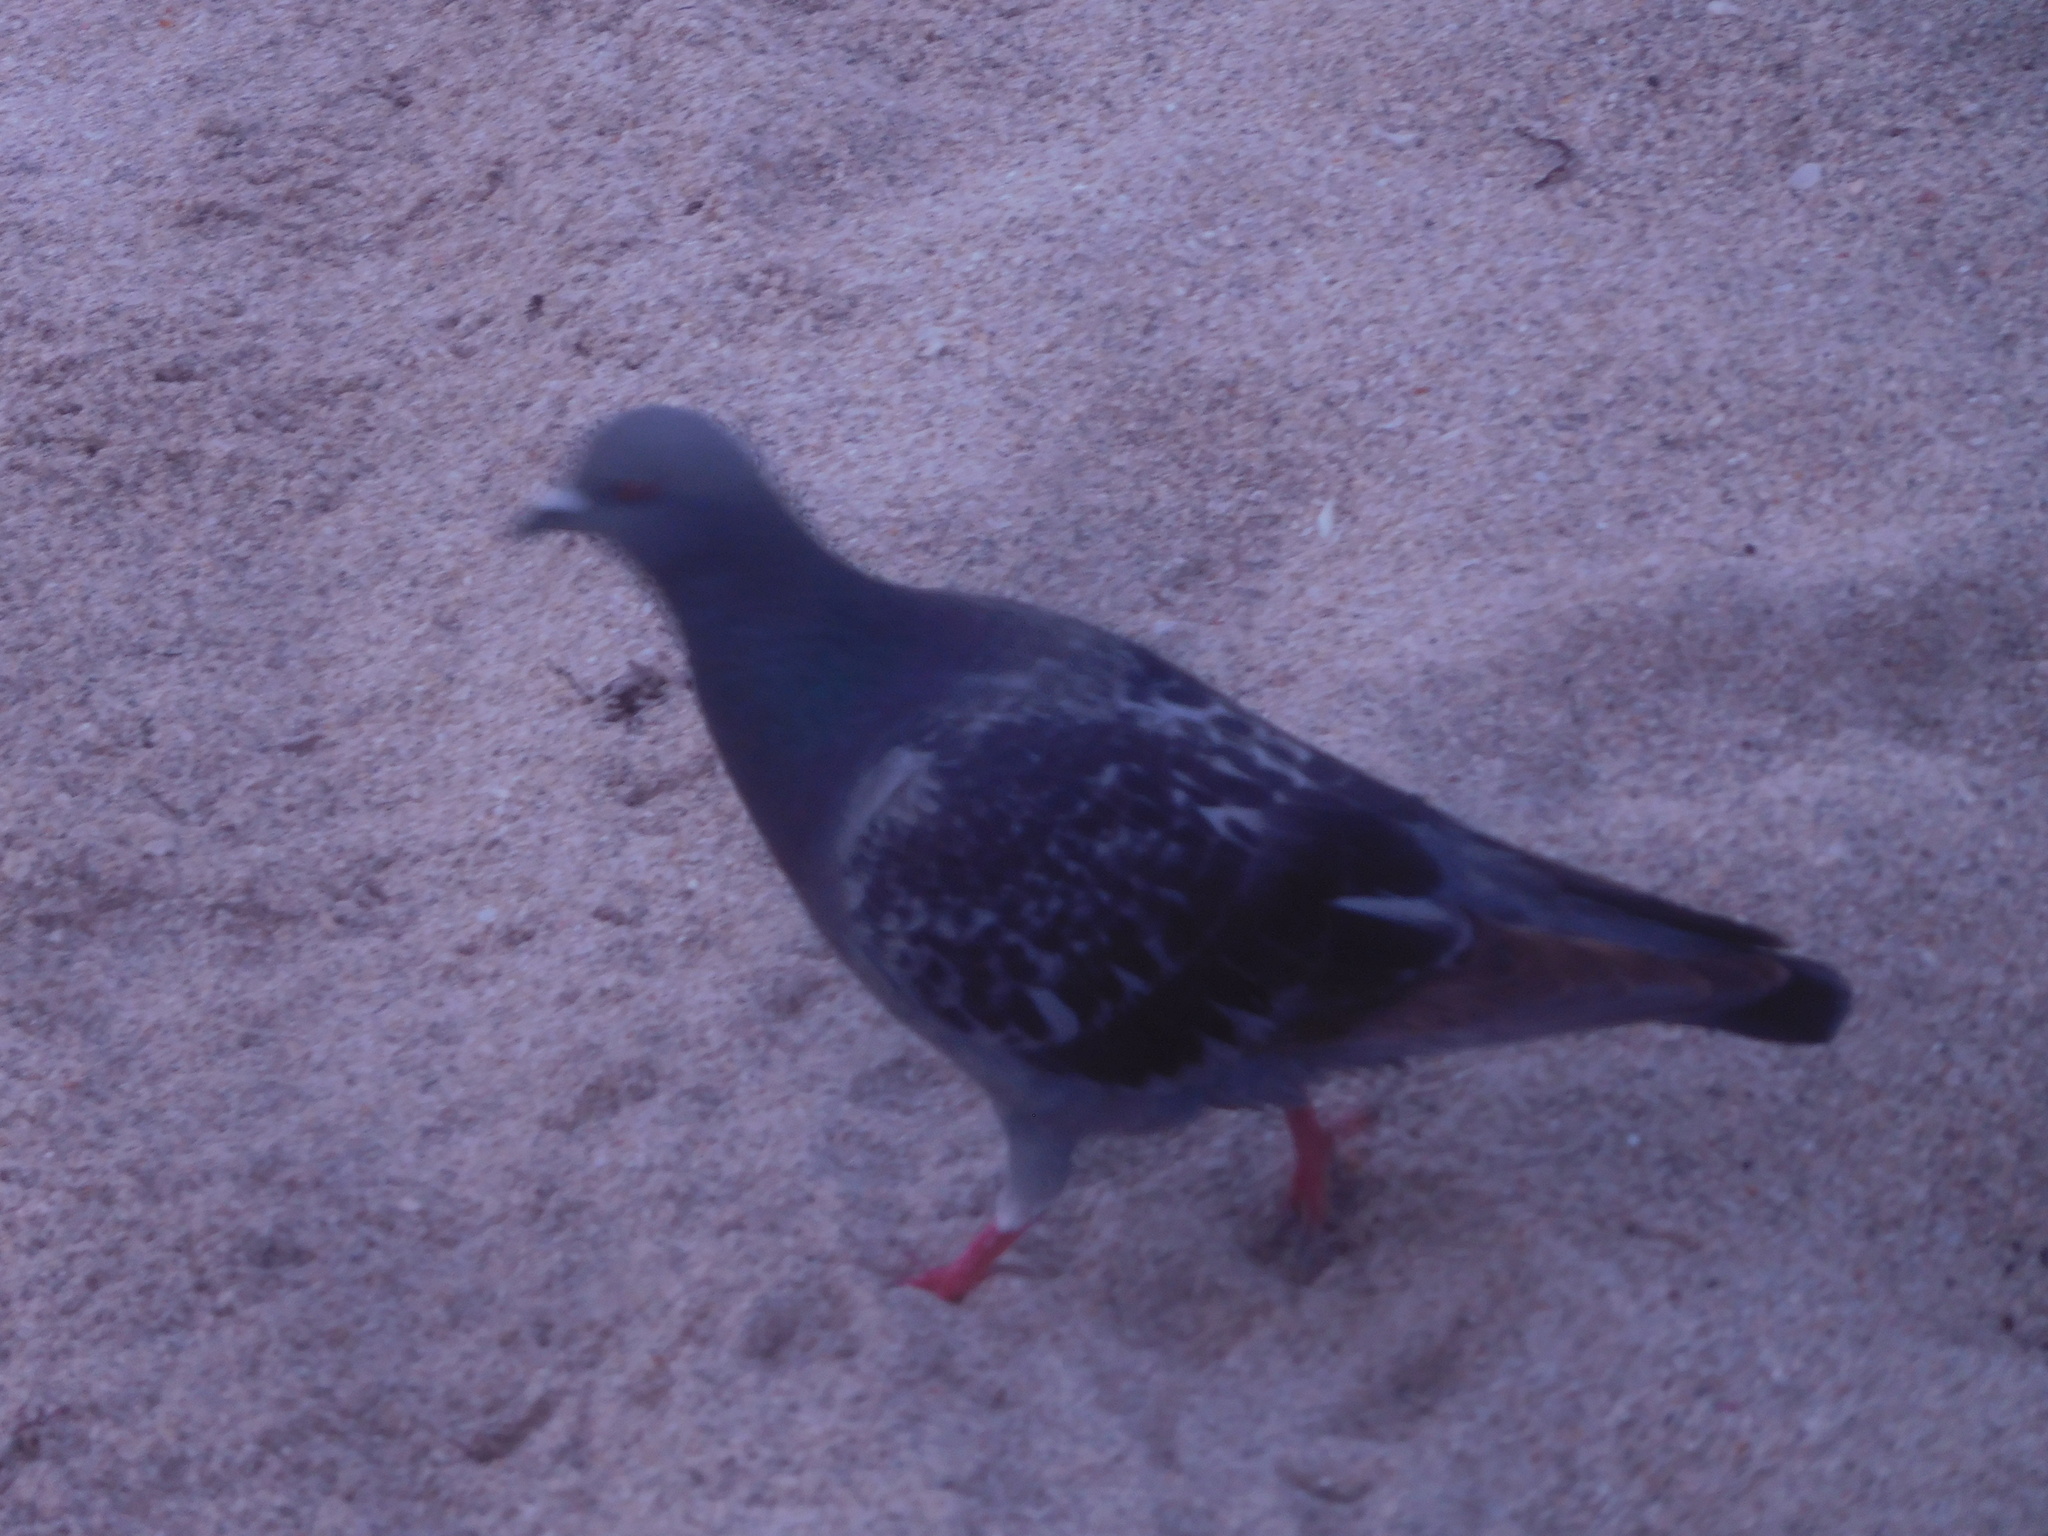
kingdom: Animalia
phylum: Chordata
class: Aves
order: Columbiformes
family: Columbidae
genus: Columba
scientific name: Columba livia
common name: Rock pigeon
